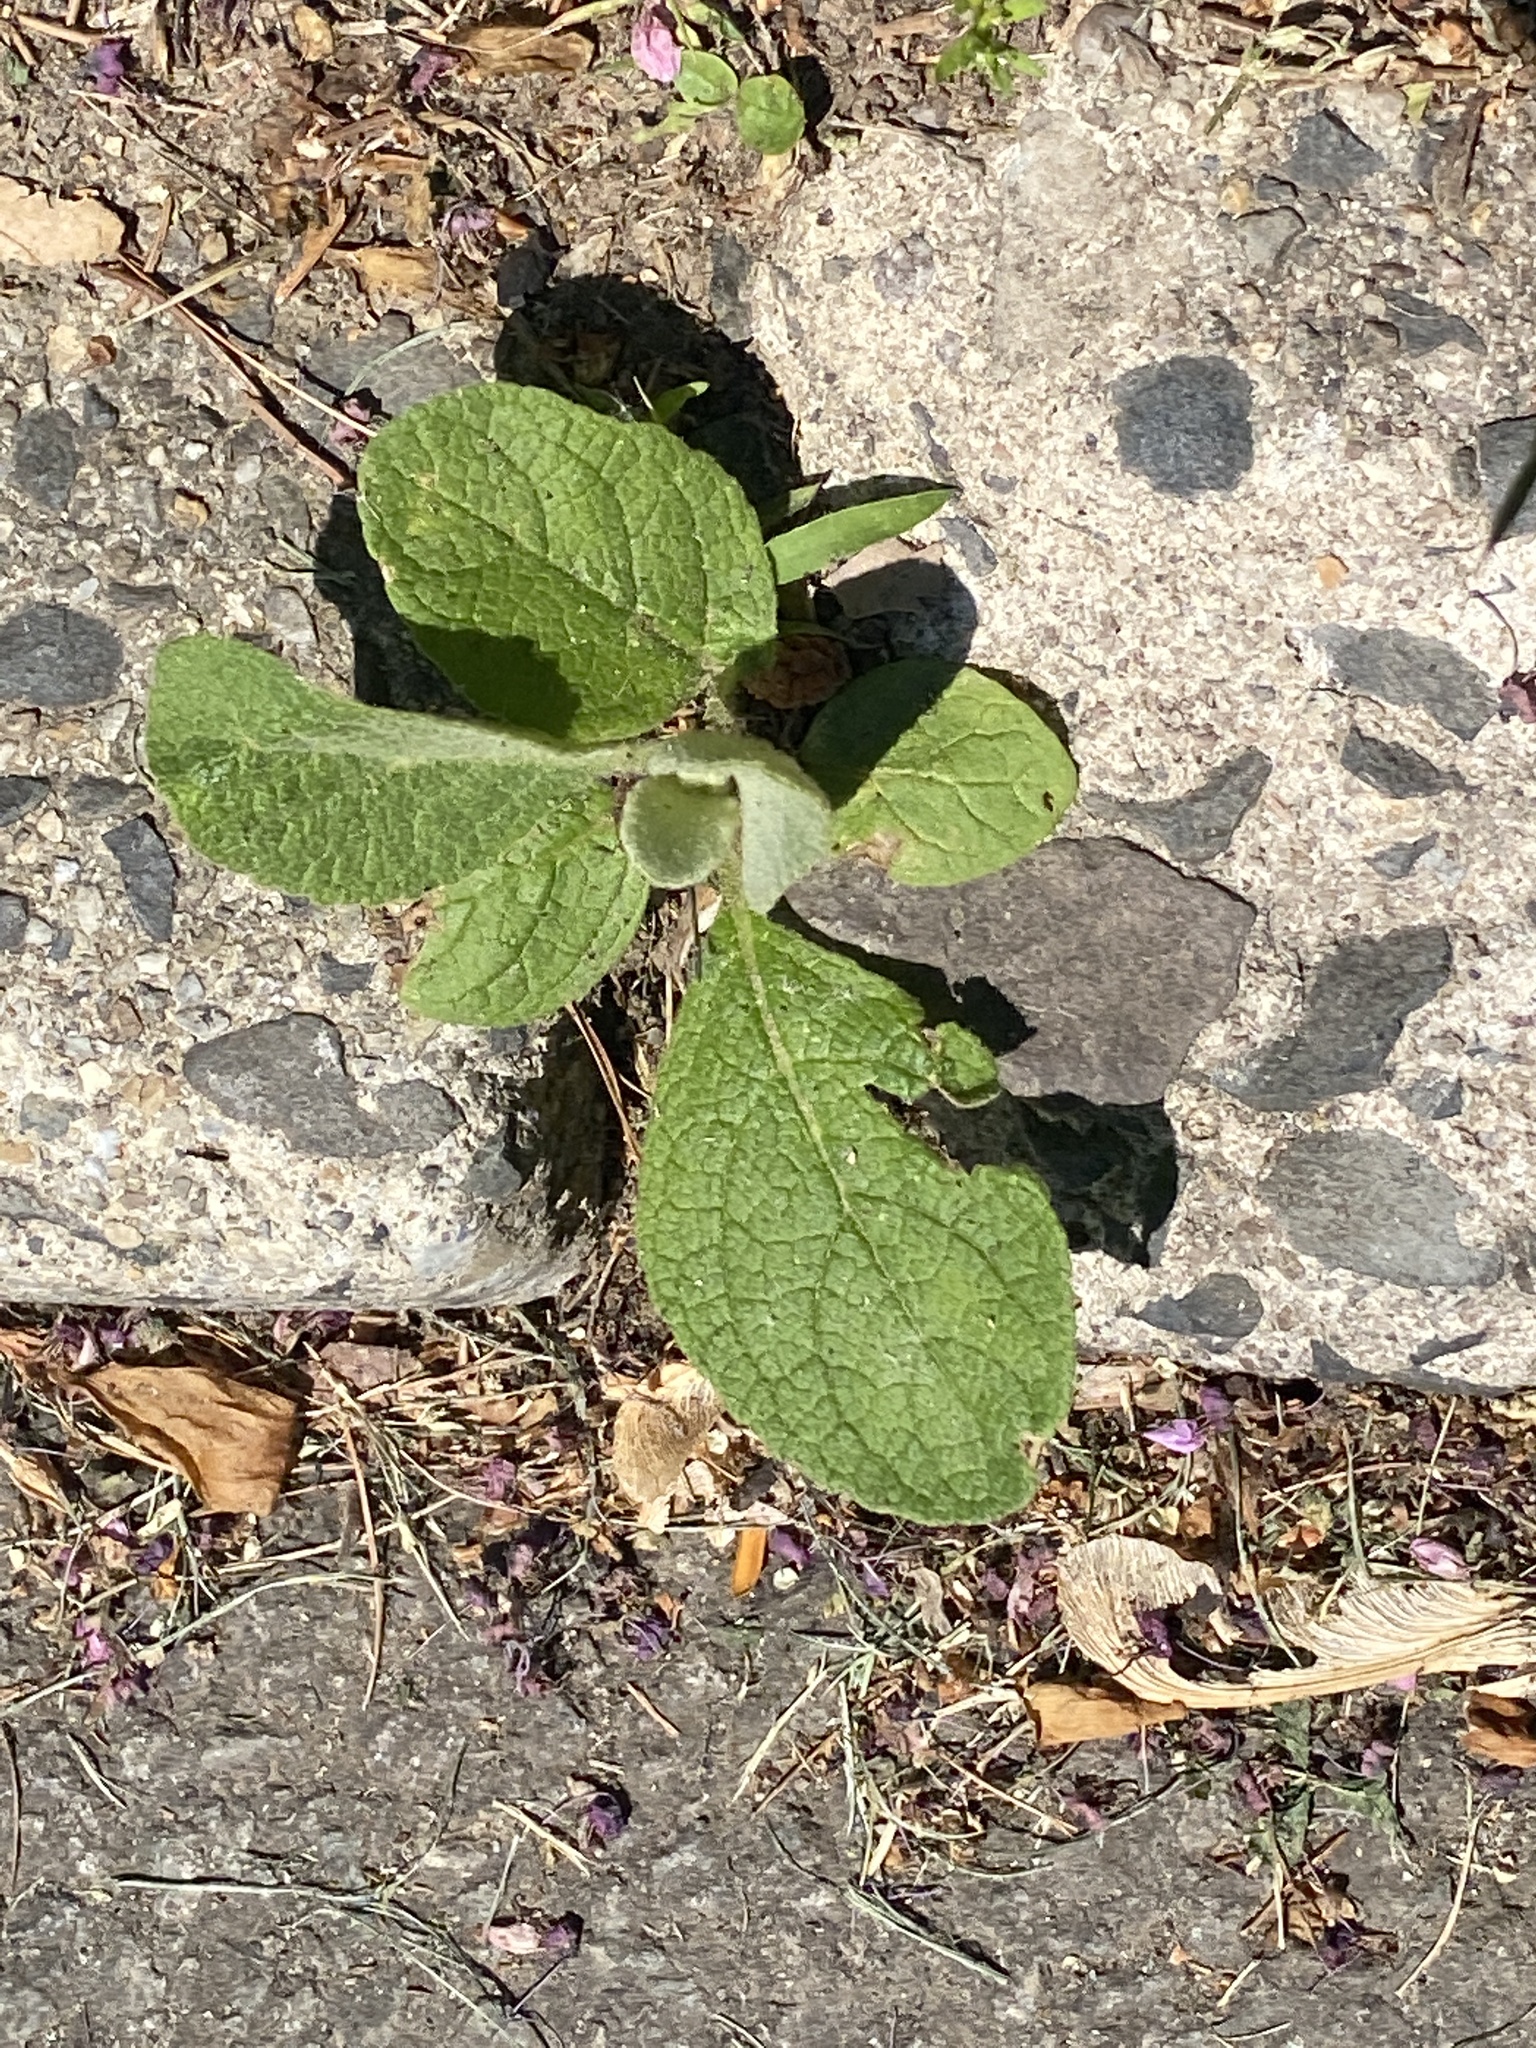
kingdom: Plantae
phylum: Tracheophyta
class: Magnoliopsida
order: Lamiales
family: Scrophulariaceae
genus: Verbascum
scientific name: Verbascum thapsus
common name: Common mullein
